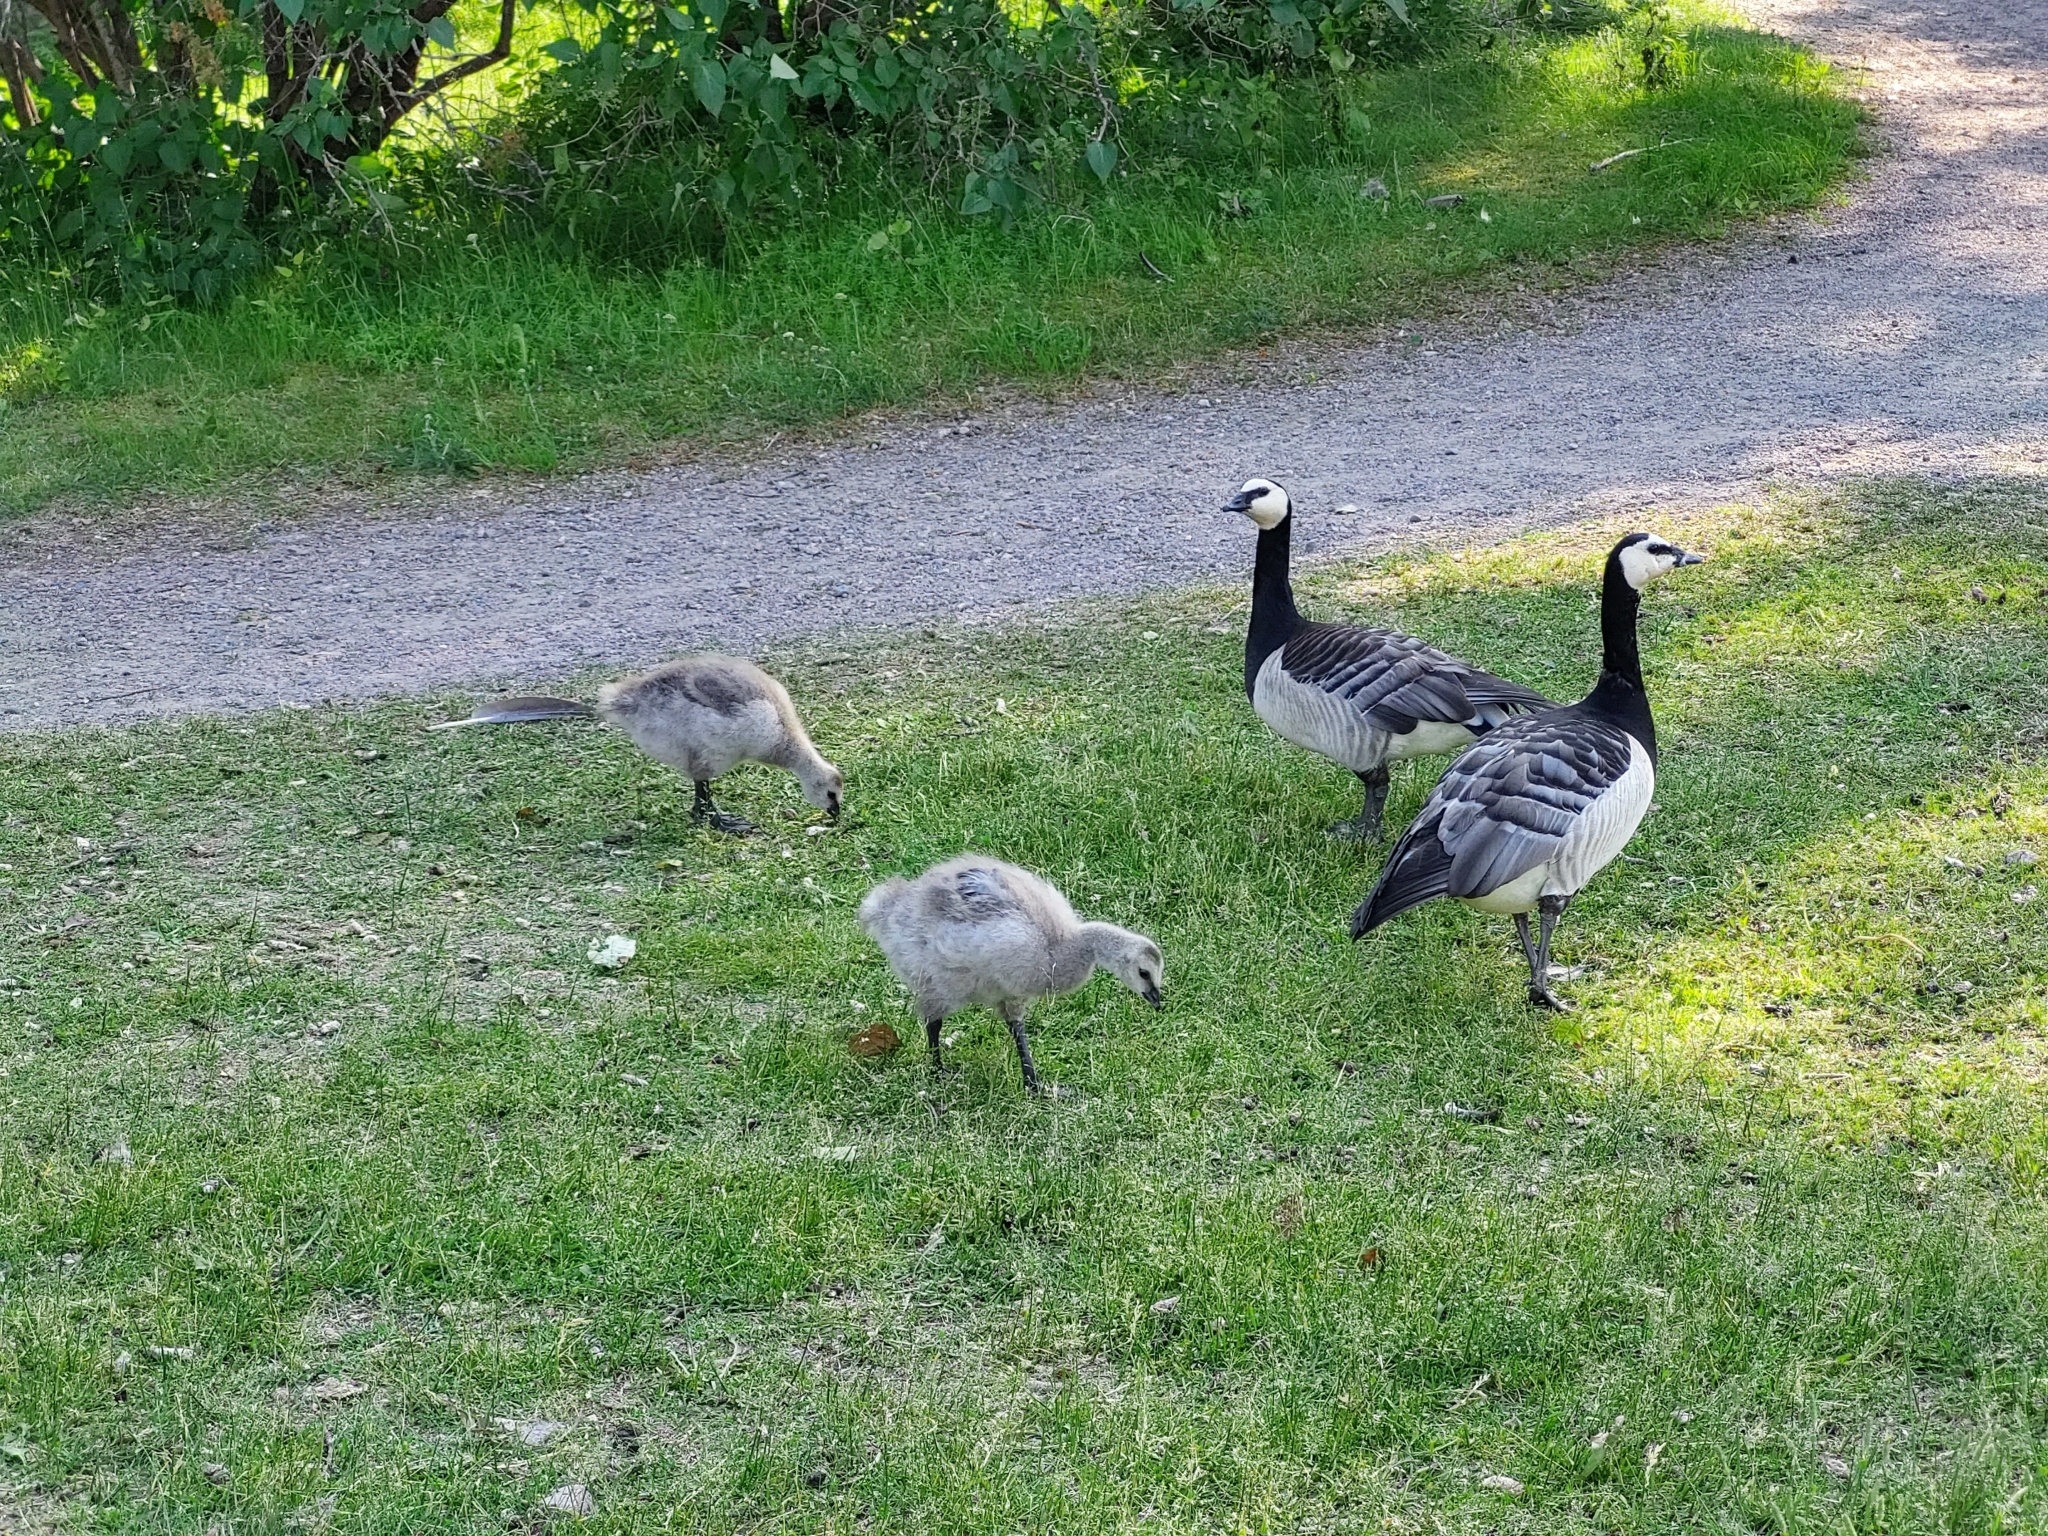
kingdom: Animalia
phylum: Chordata
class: Aves
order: Anseriformes
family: Anatidae
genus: Branta
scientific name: Branta leucopsis
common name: Barnacle goose
